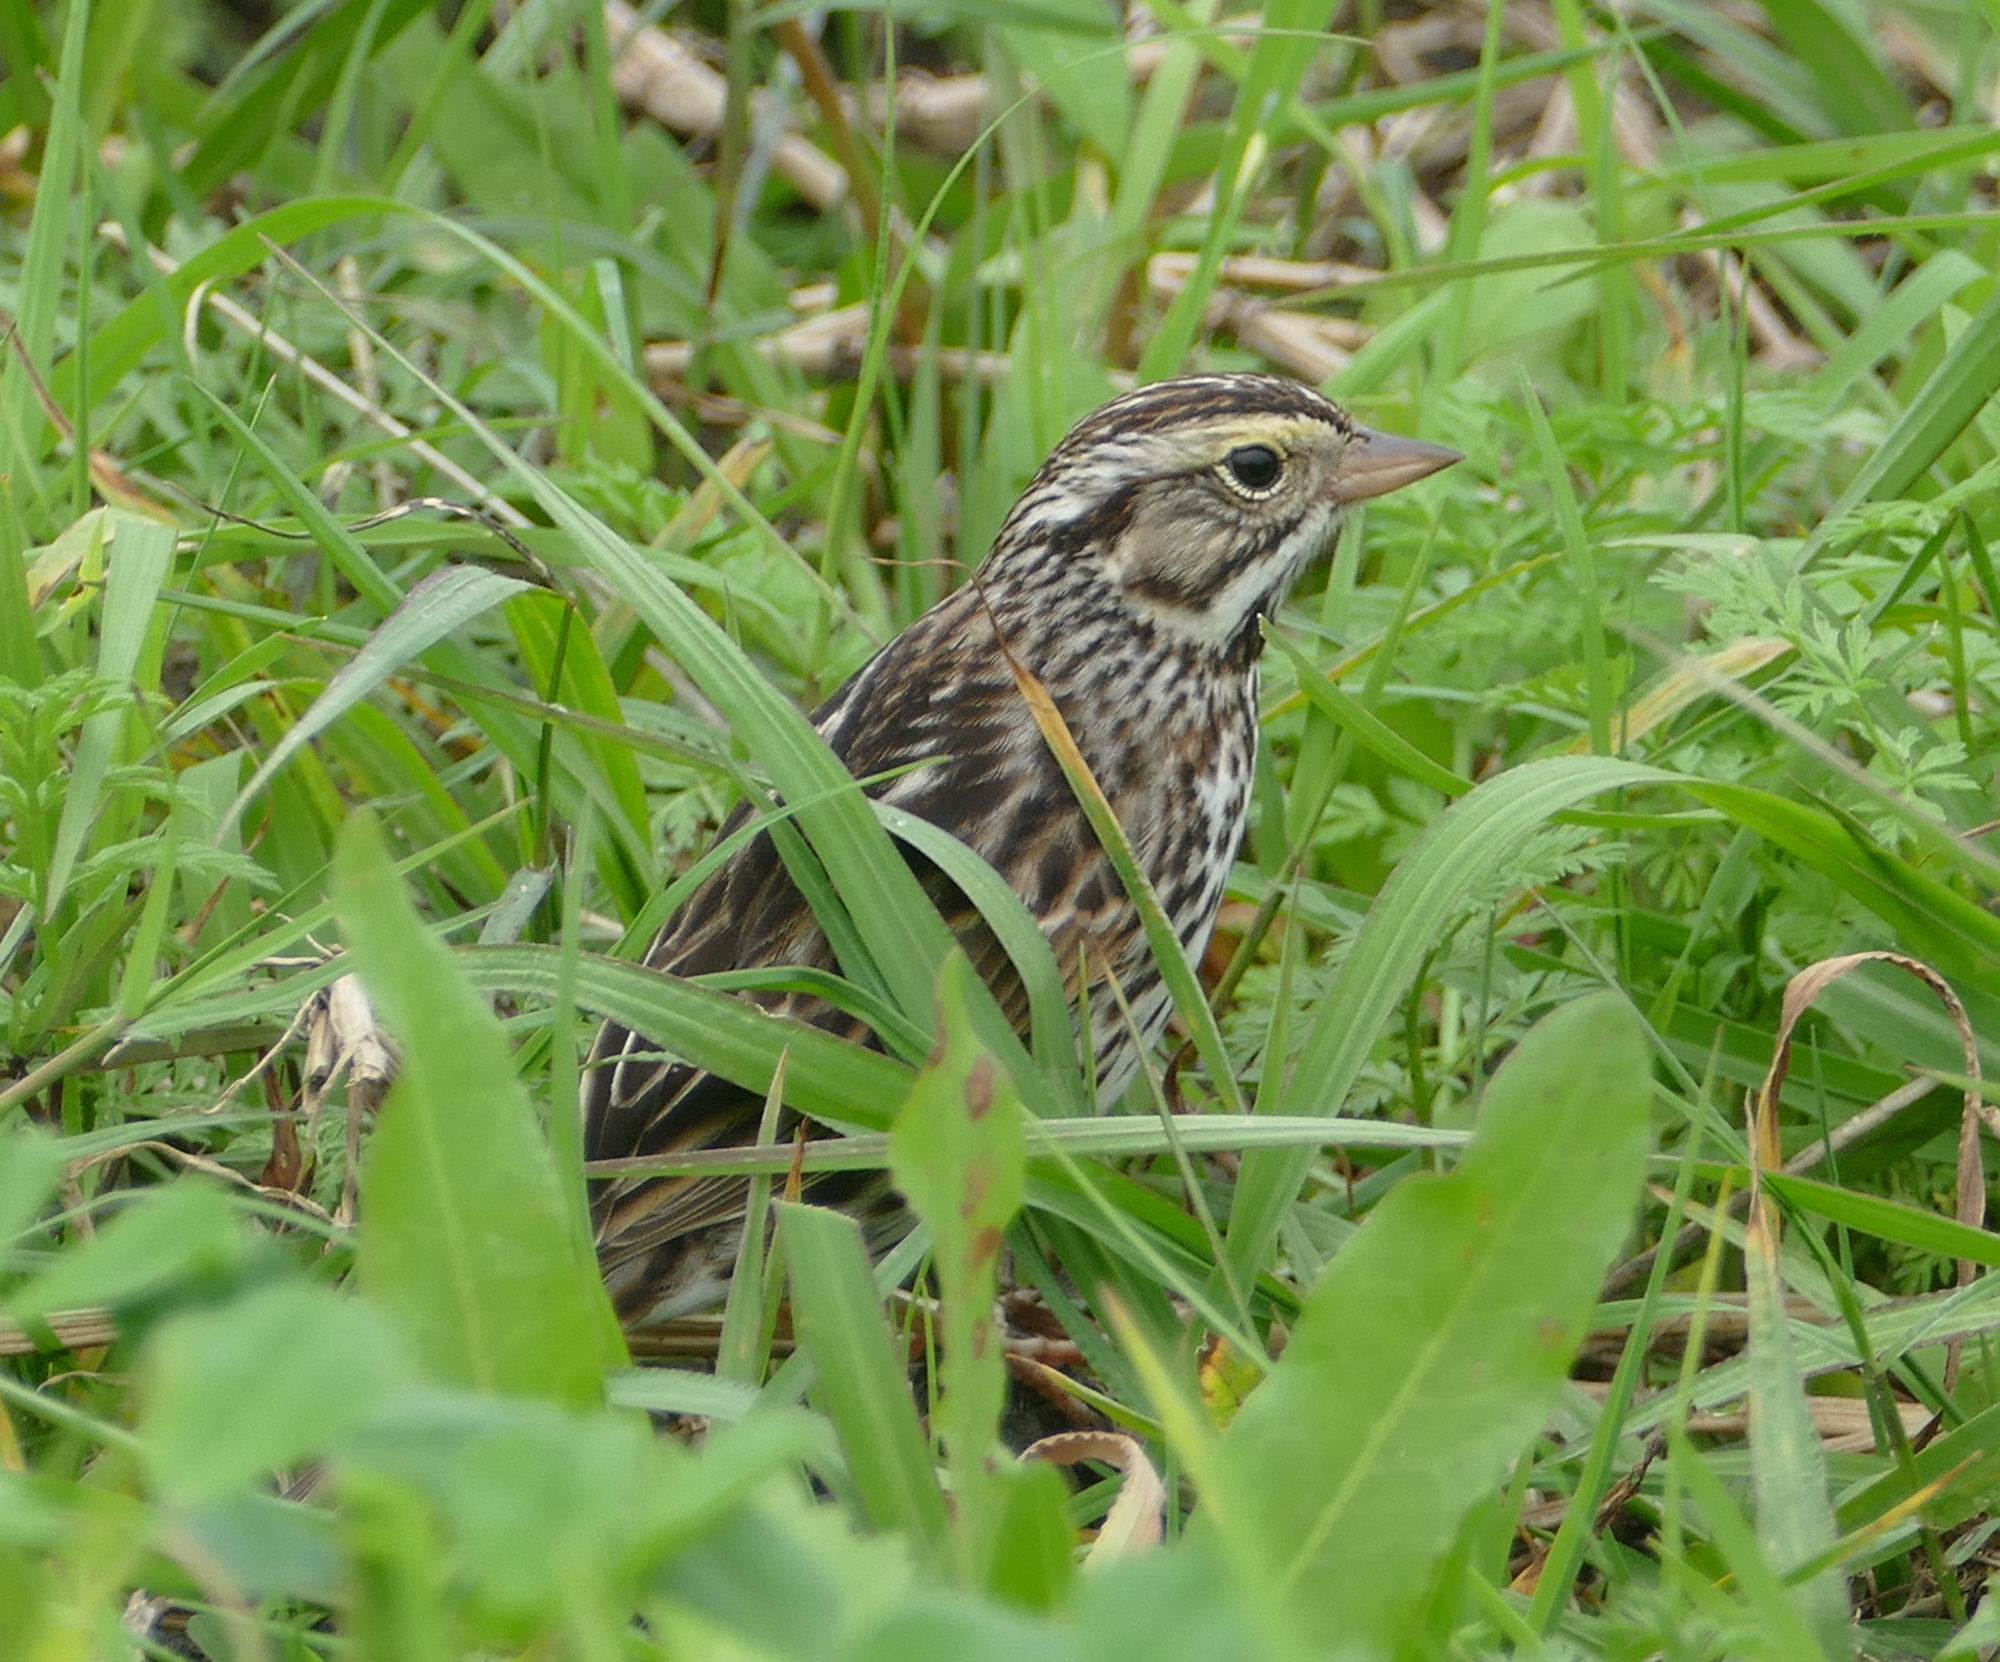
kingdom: Animalia
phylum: Chordata
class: Aves
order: Passeriformes
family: Passerellidae
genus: Passerculus
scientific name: Passerculus sandwichensis
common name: Savannah sparrow
